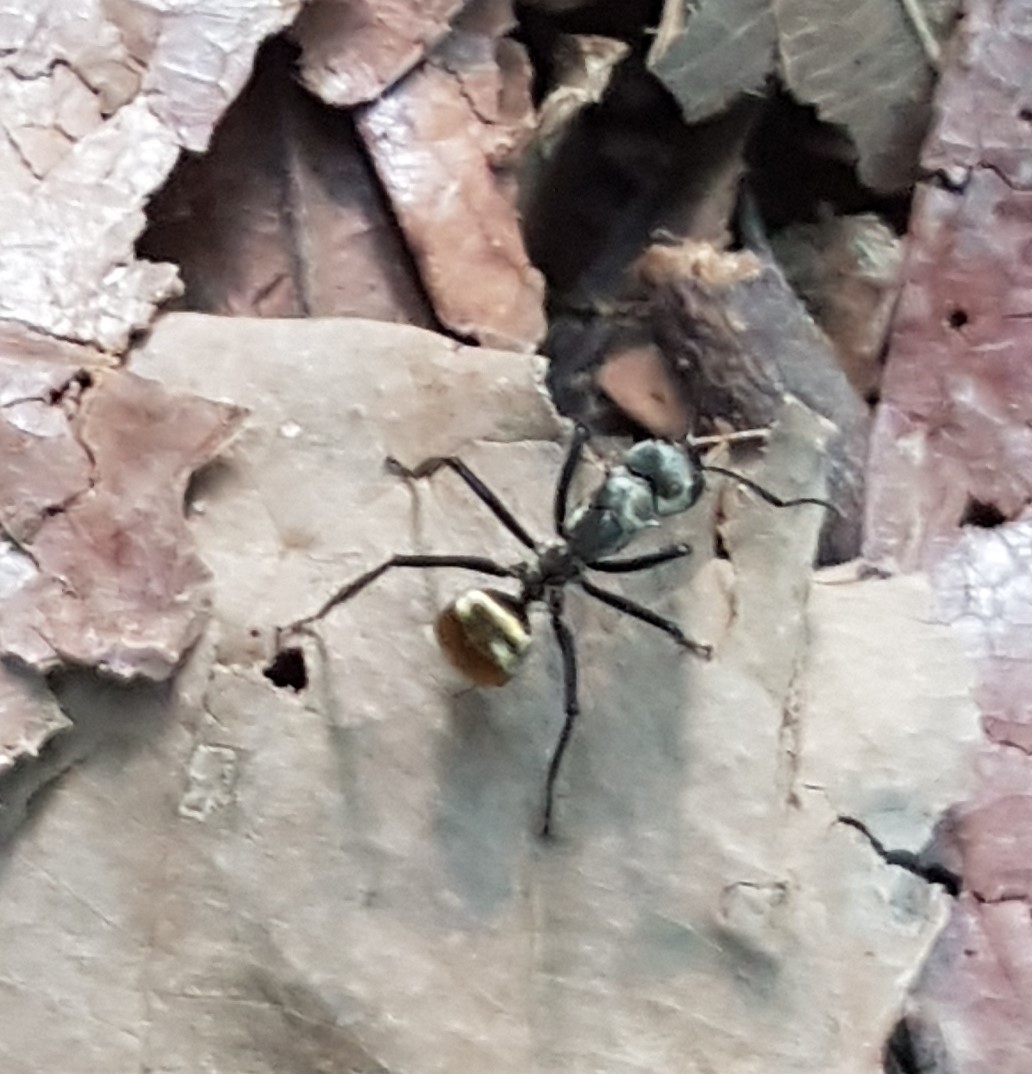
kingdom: Animalia
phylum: Arthropoda
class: Insecta
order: Hymenoptera
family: Formicidae
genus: Camponotus
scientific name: Camponotus sericeiventris
